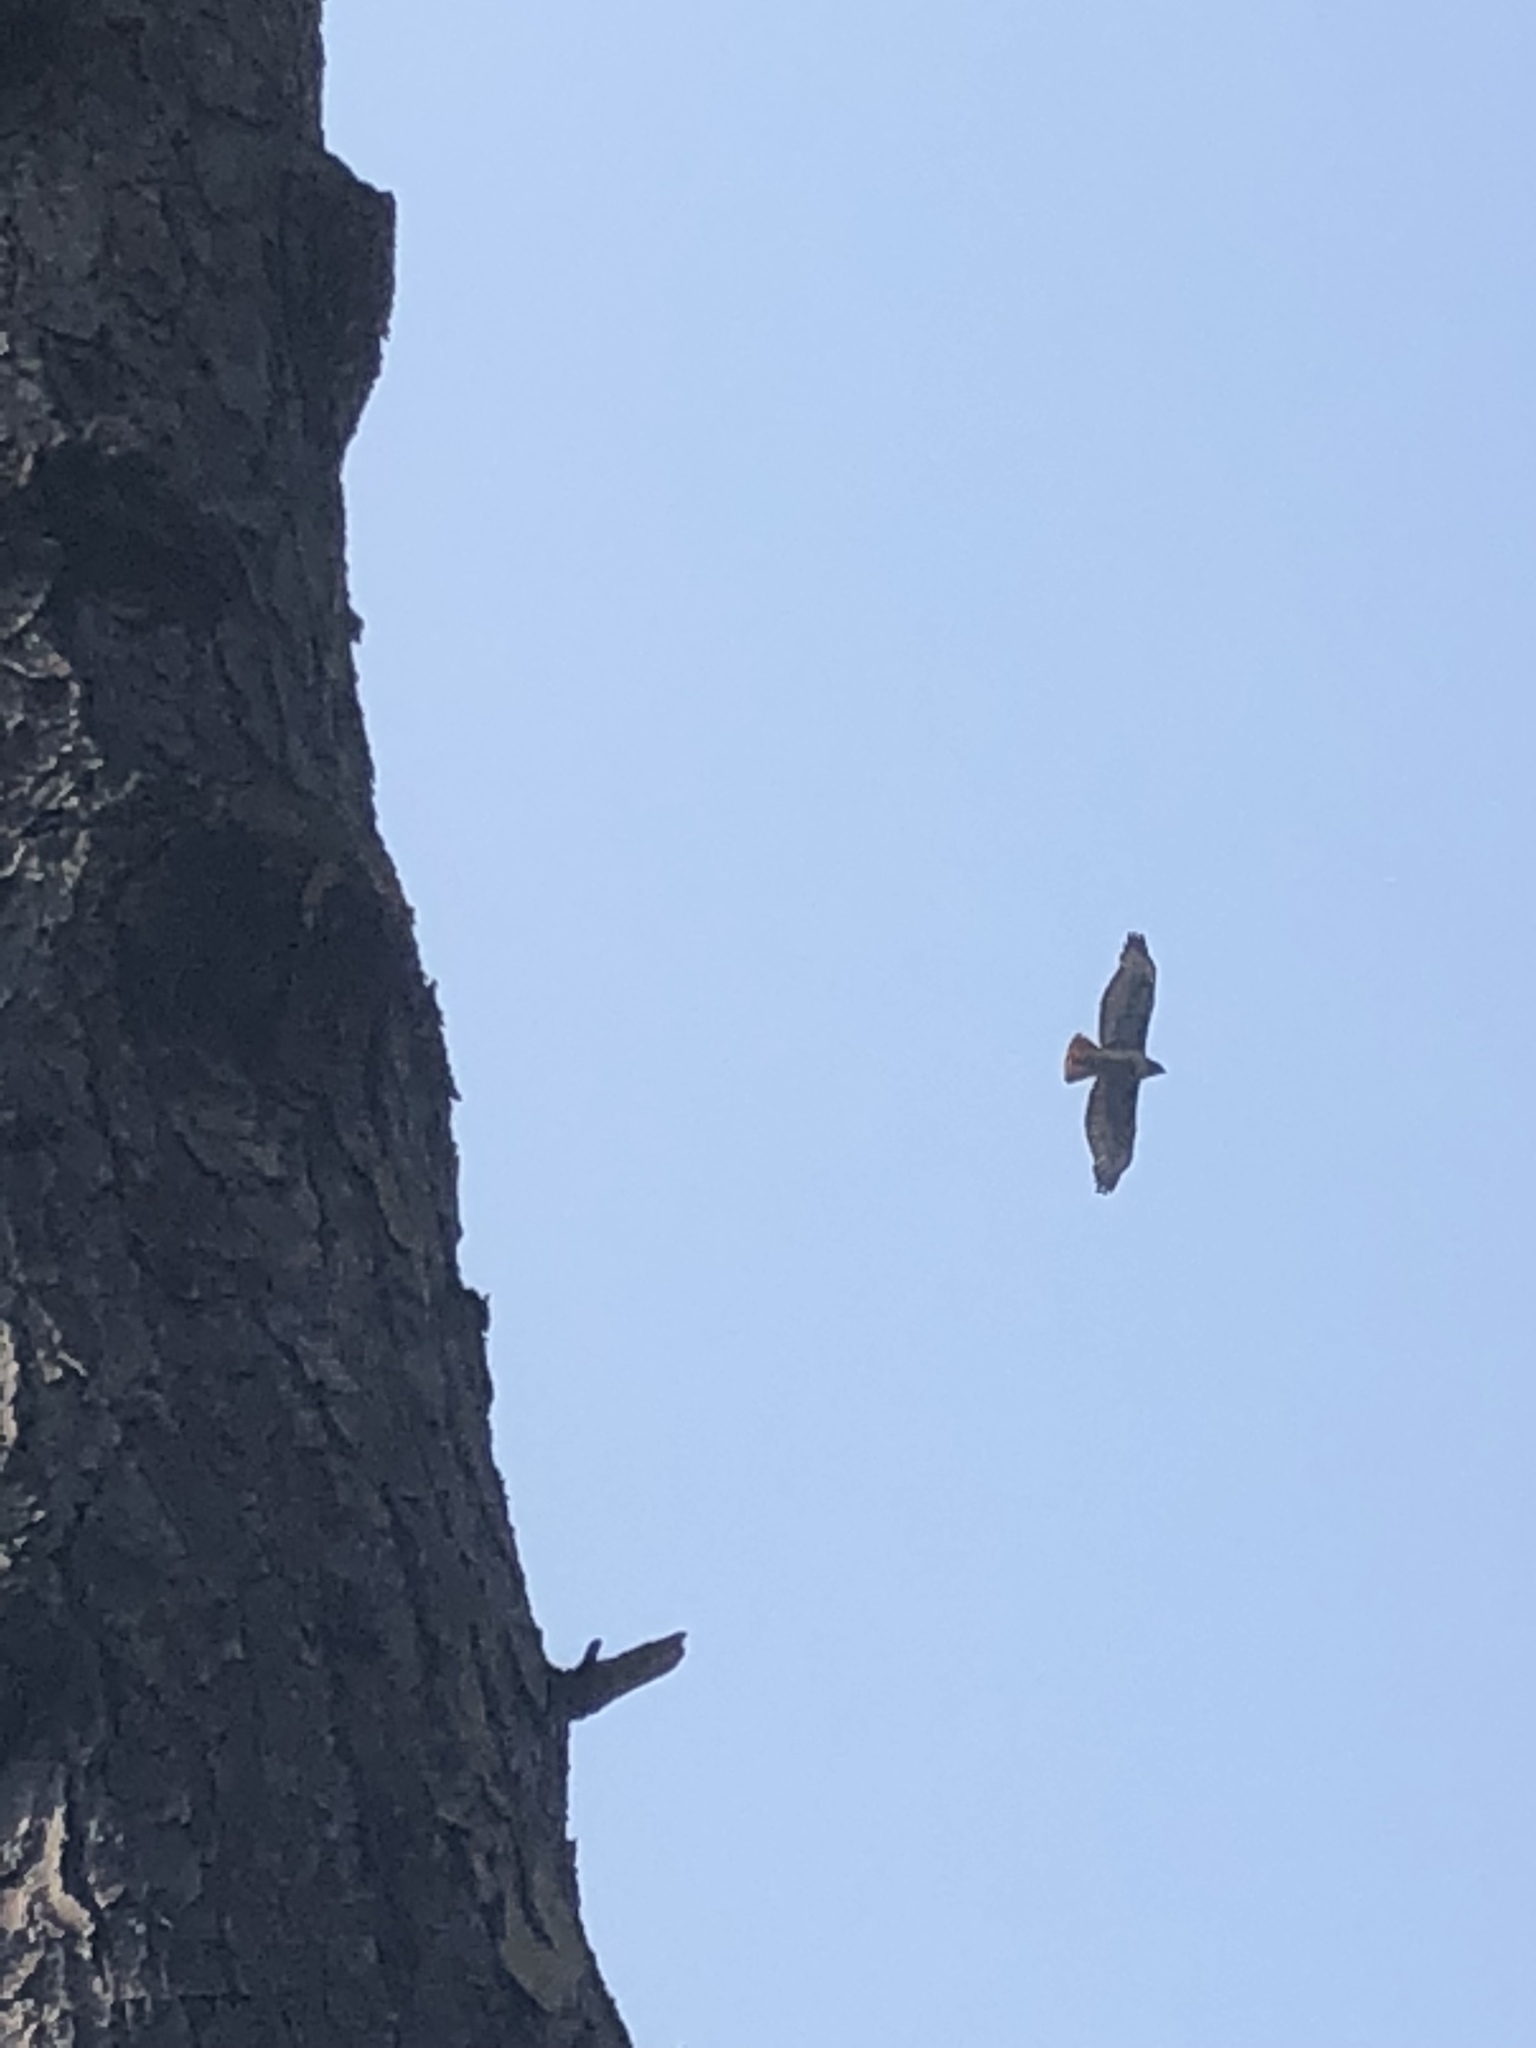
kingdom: Animalia
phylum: Chordata
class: Aves
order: Accipitriformes
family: Accipitridae
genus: Buteo
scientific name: Buteo jamaicensis
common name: Red-tailed hawk
